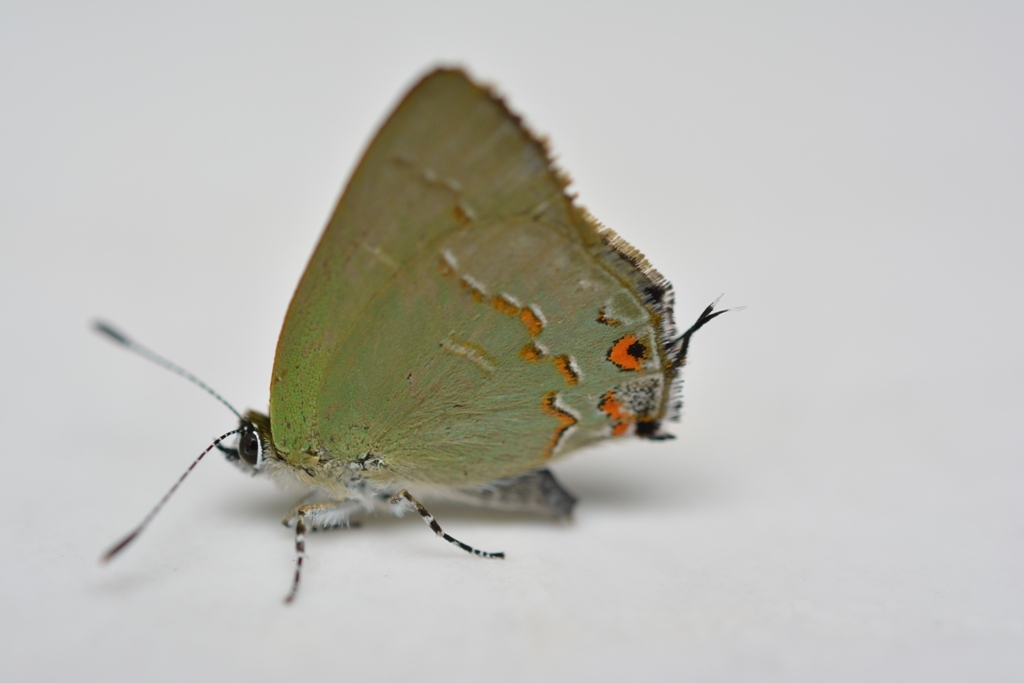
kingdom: Animalia
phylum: Arthropoda
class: Insecta
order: Lepidoptera
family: Lycaenidae
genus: Erora
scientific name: Erora
